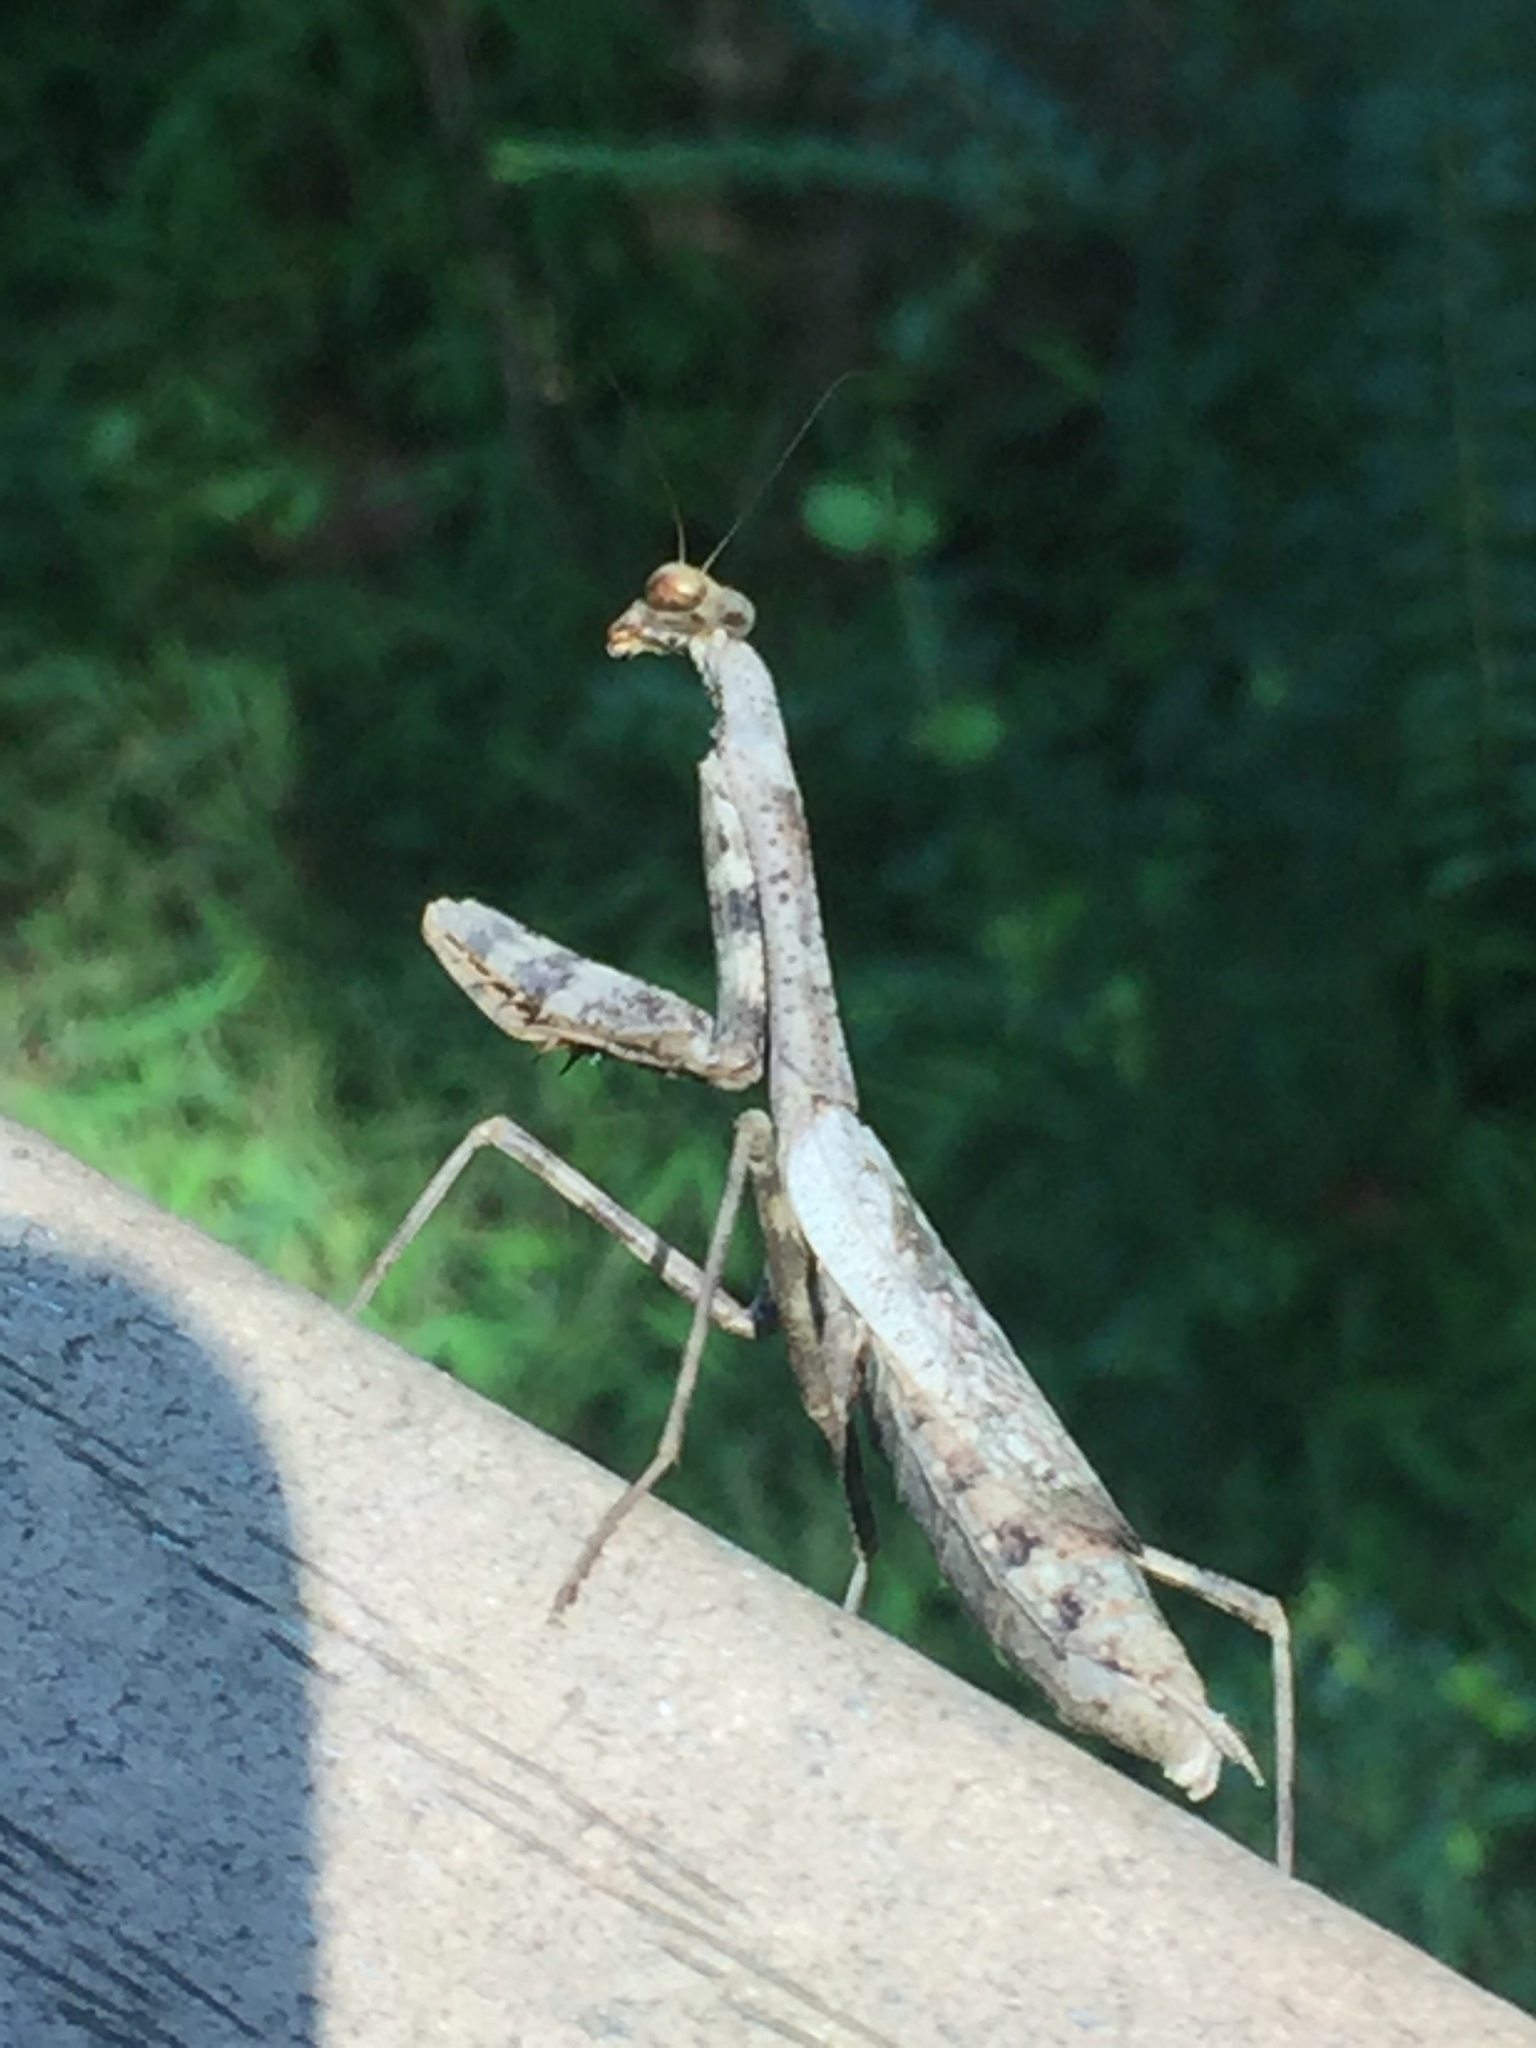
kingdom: Animalia
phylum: Arthropoda
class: Insecta
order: Mantodea
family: Mantidae
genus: Stagmomantis
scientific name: Stagmomantis carolina
